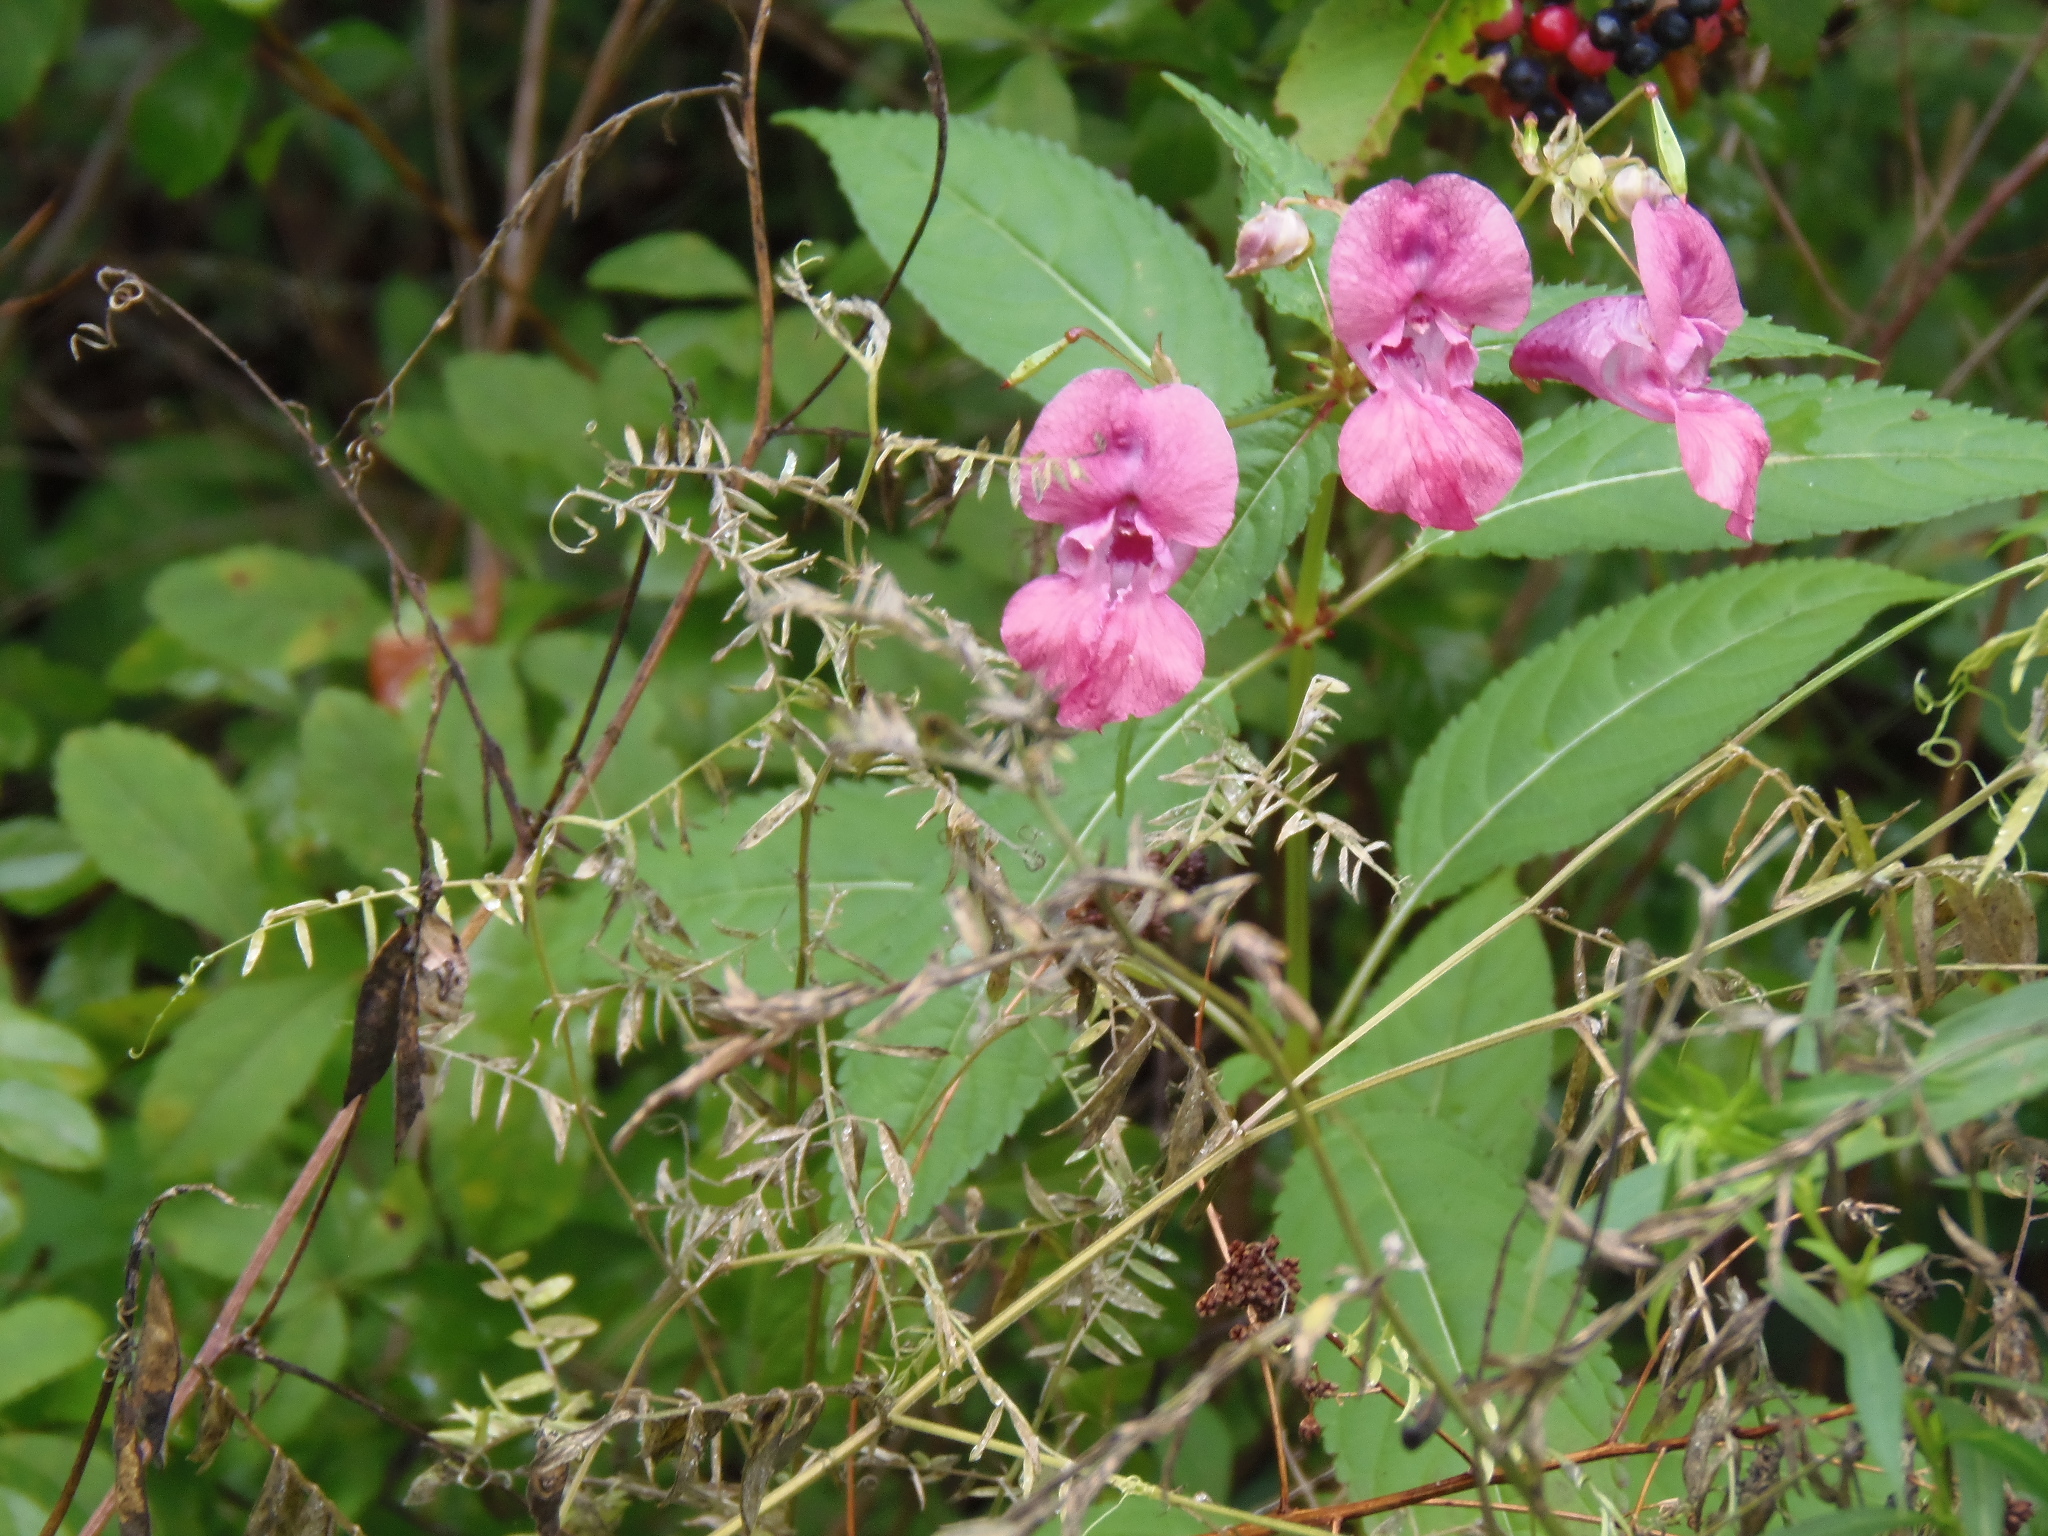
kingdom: Plantae
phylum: Tracheophyta
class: Magnoliopsida
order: Ericales
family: Balsaminaceae
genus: Impatiens
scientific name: Impatiens glandulifera
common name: Himalayan balsam
